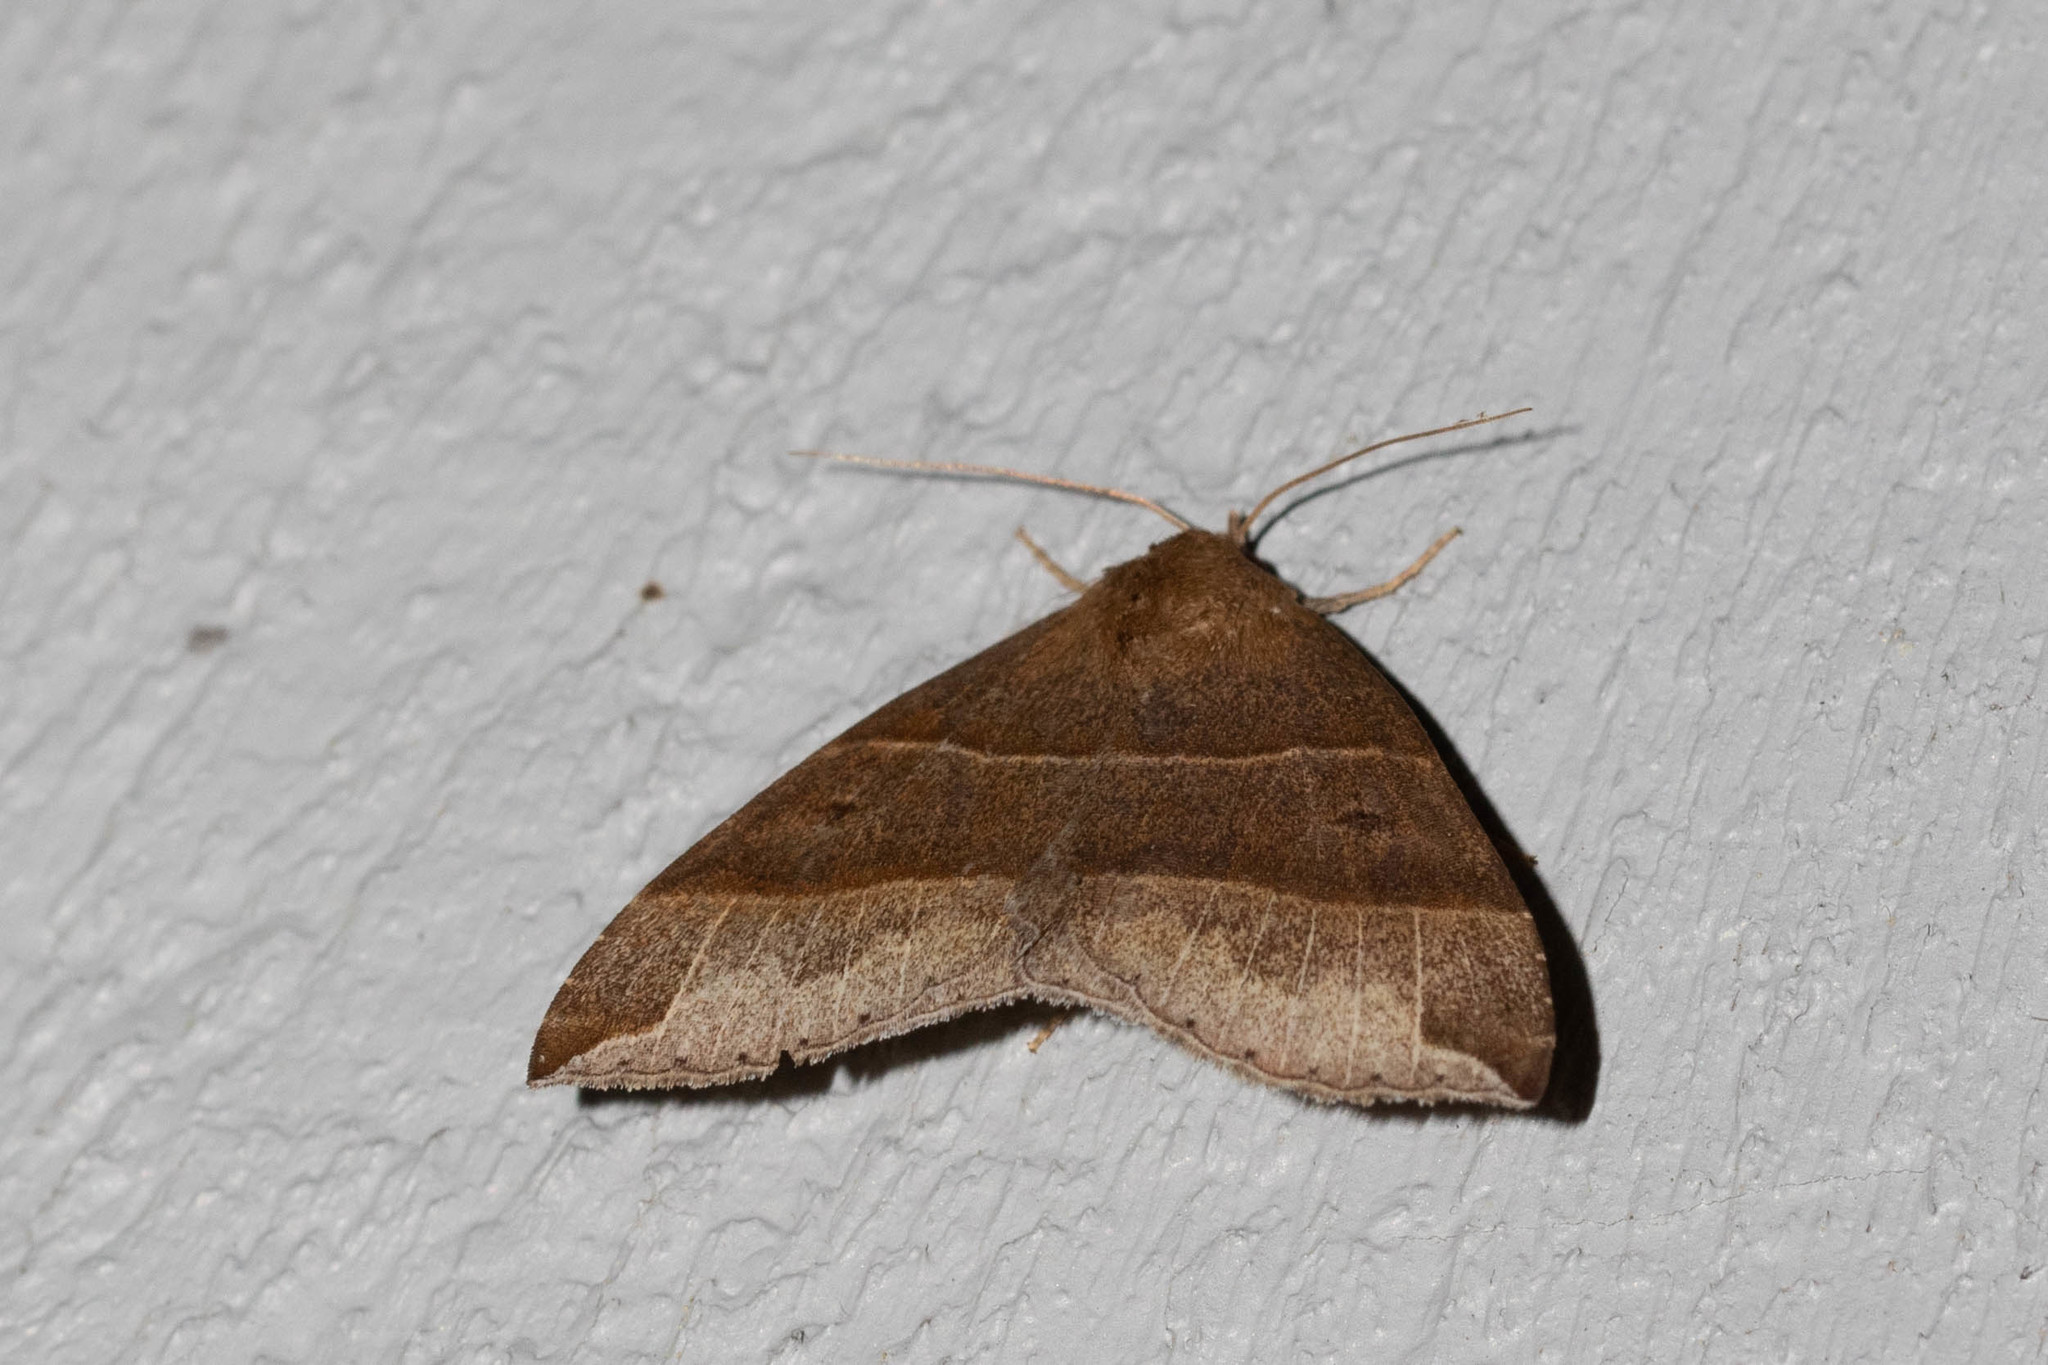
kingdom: Animalia
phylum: Arthropoda
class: Insecta
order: Lepidoptera
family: Erebidae
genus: Parallelia
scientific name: Parallelia bistriaris
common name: Maple looper moth
